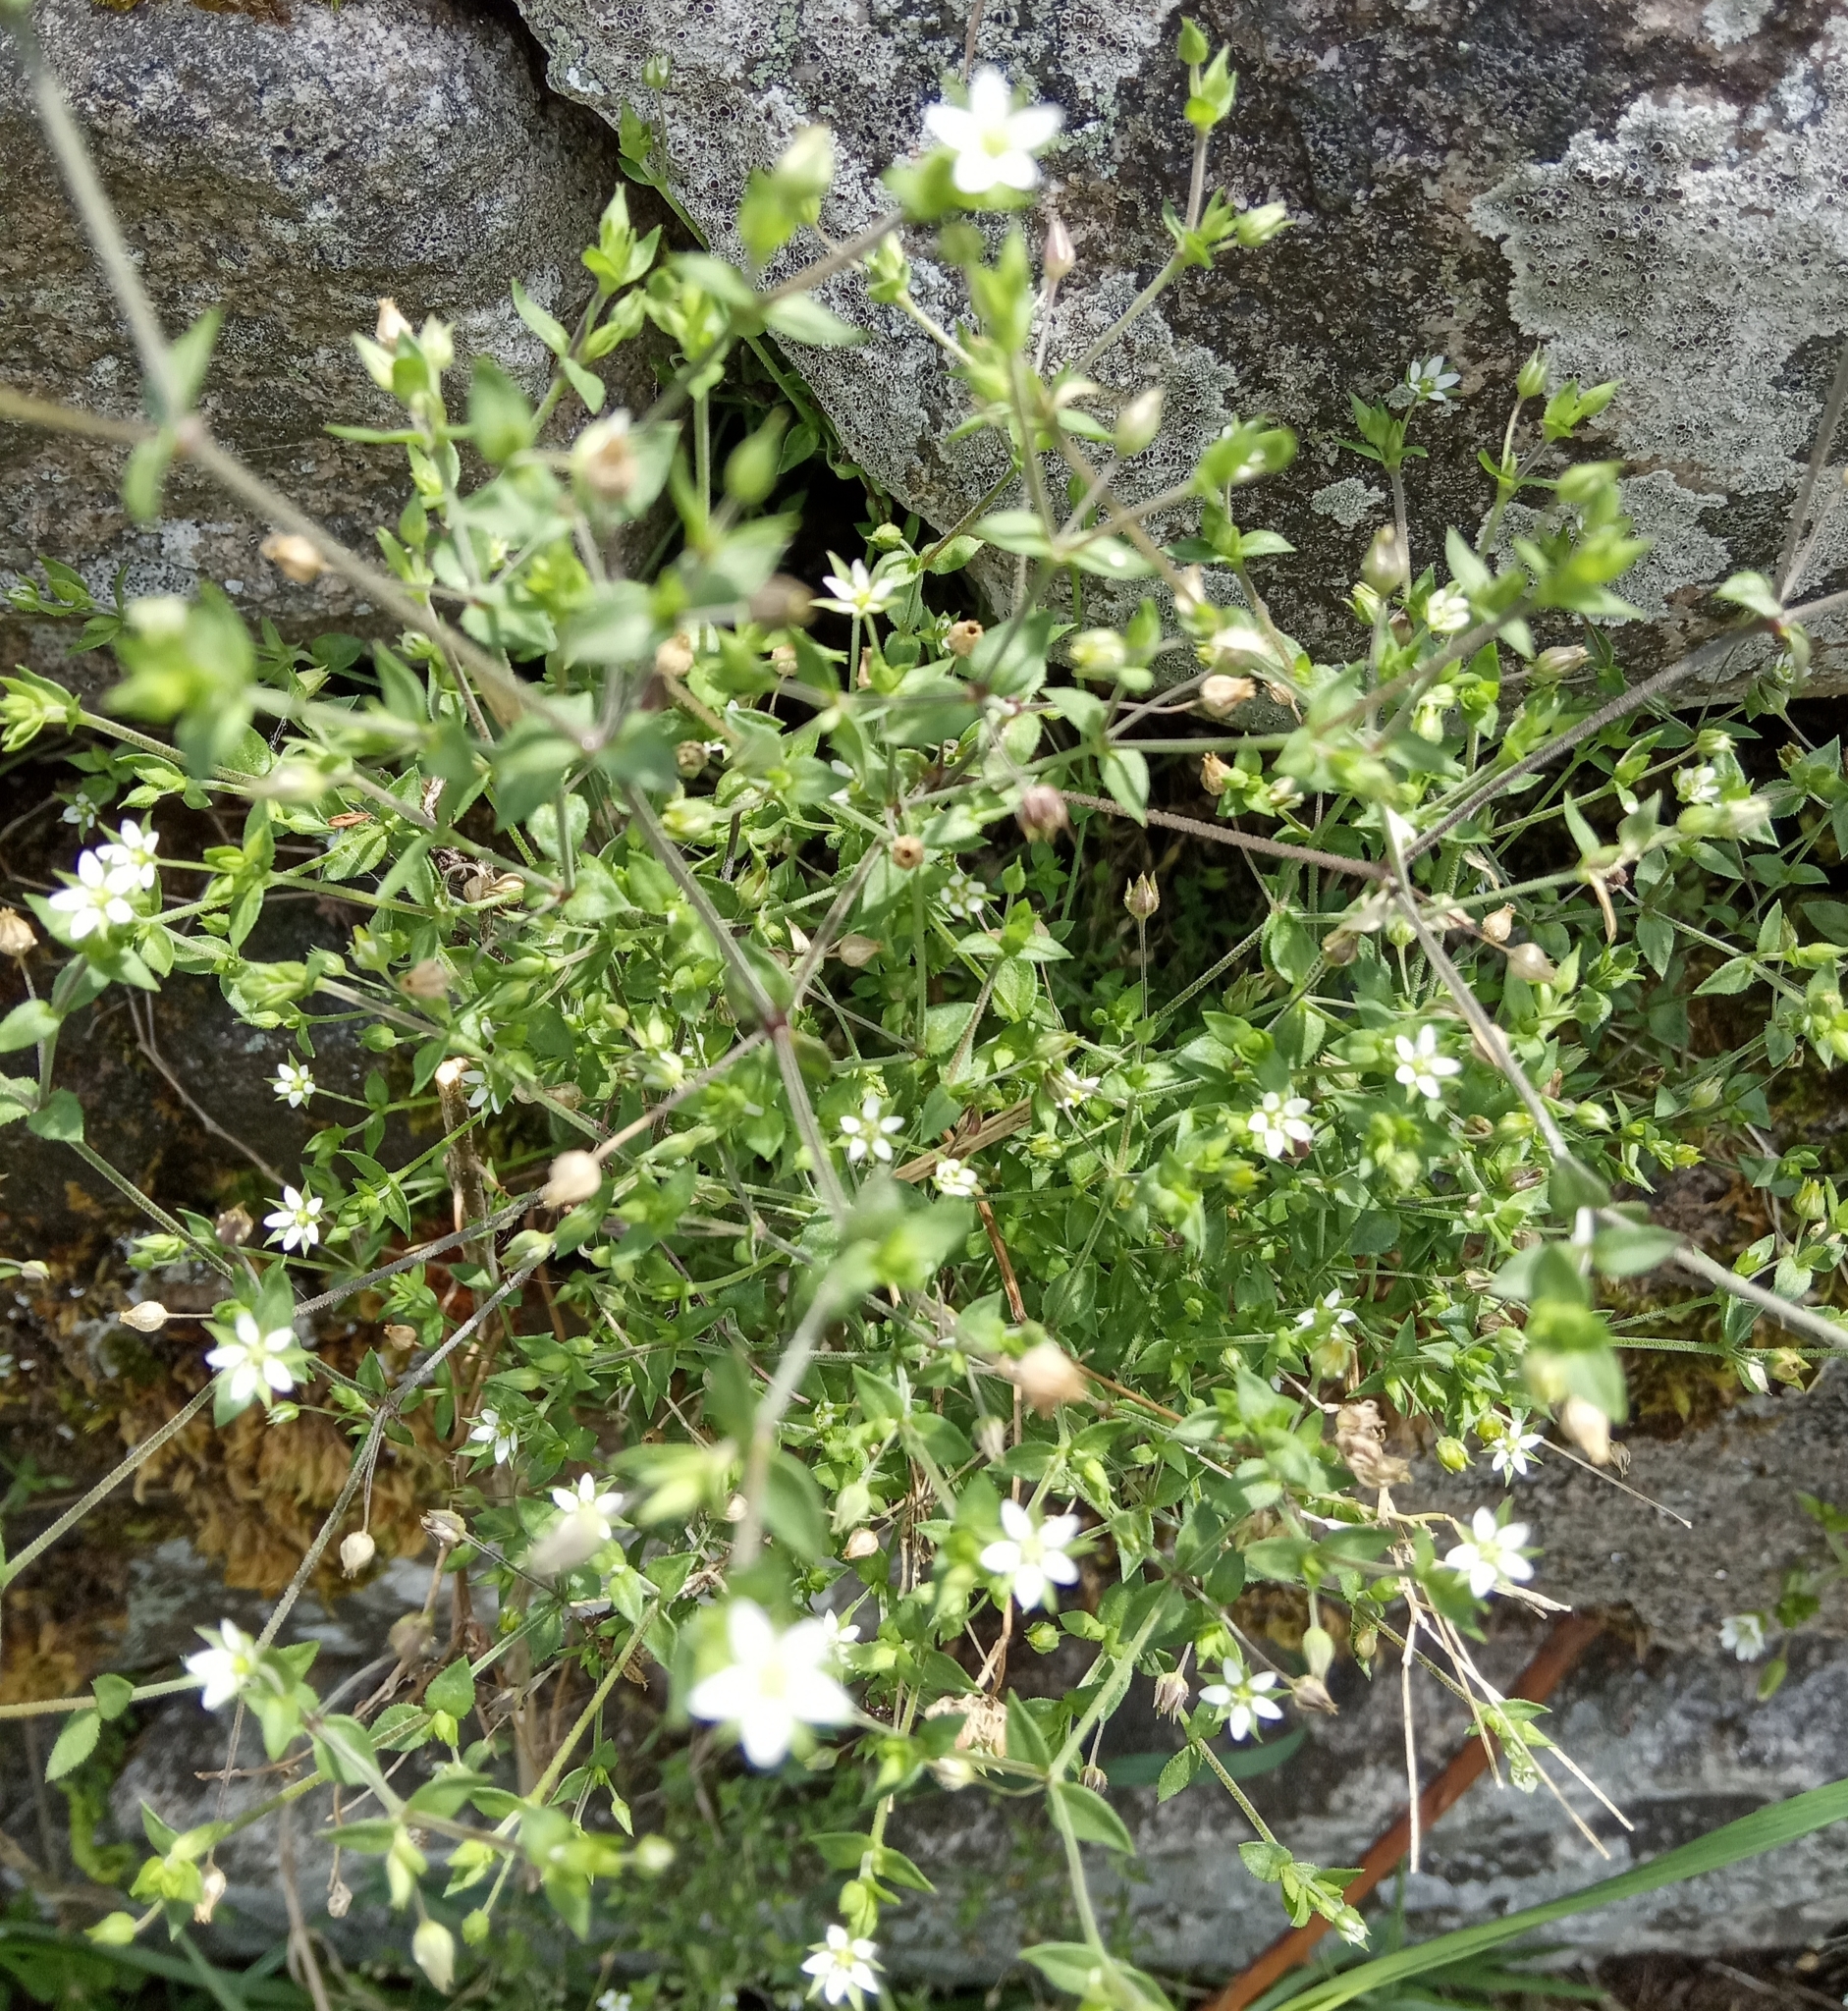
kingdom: Plantae
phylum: Tracheophyta
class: Magnoliopsida
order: Caryophyllales
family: Caryophyllaceae
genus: Arenaria
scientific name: Arenaria serpyllifolia
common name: Thyme-leaved sandwort
